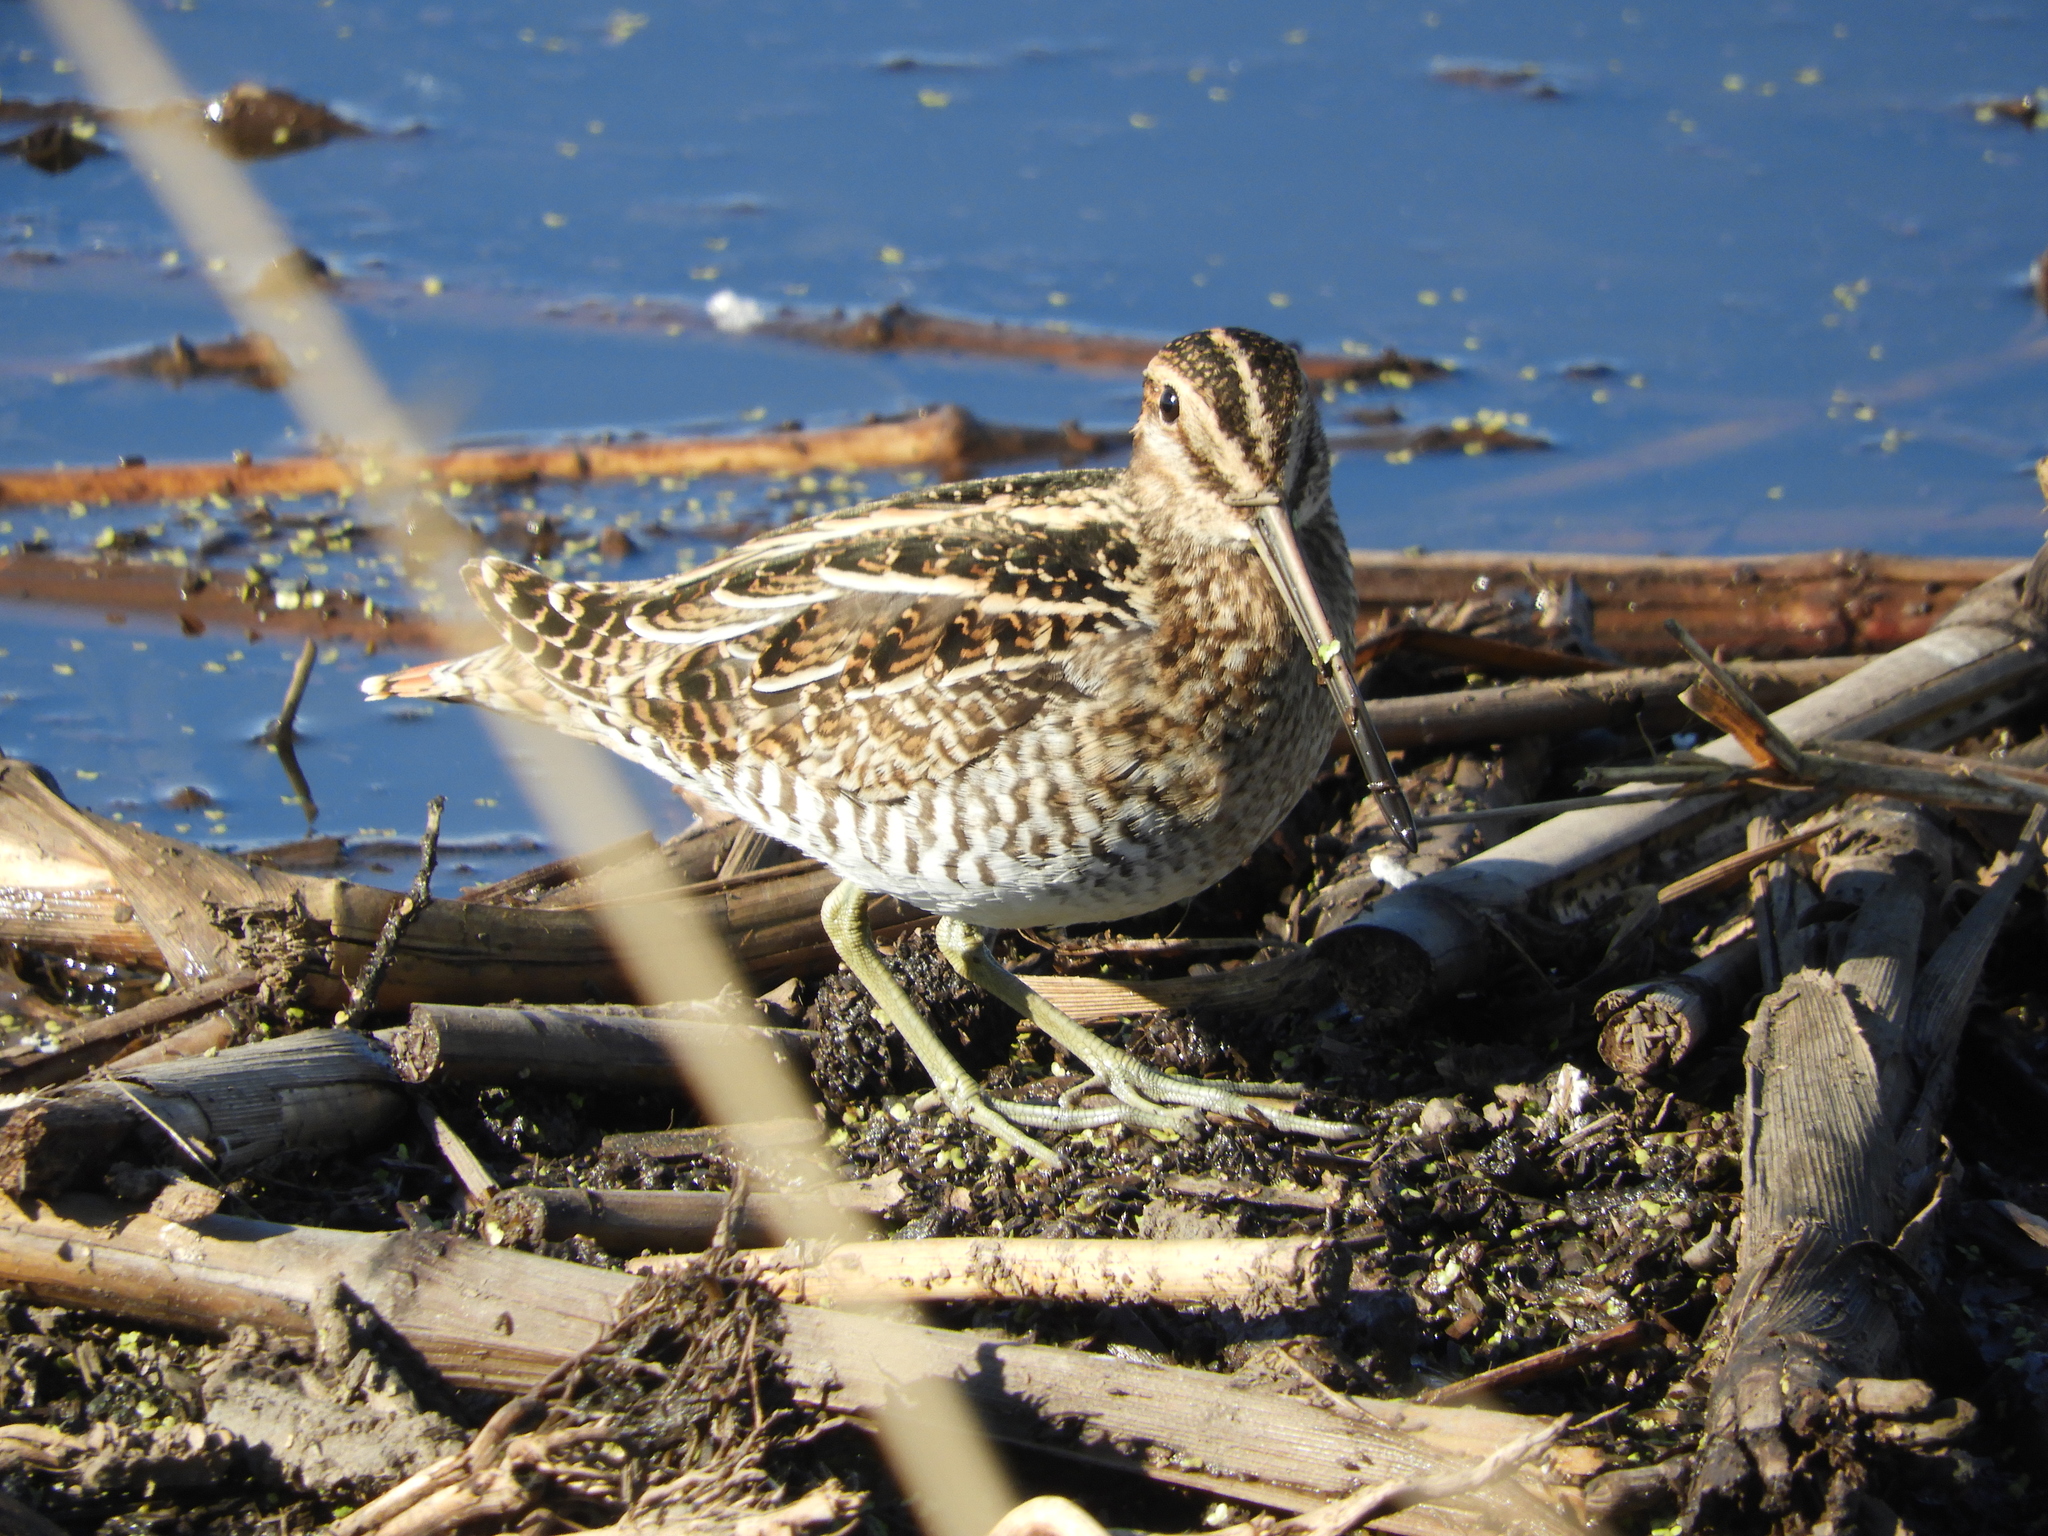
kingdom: Animalia
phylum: Chordata
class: Aves
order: Charadriiformes
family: Scolopacidae
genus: Gallinago
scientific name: Gallinago delicata
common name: Wilson's snipe
